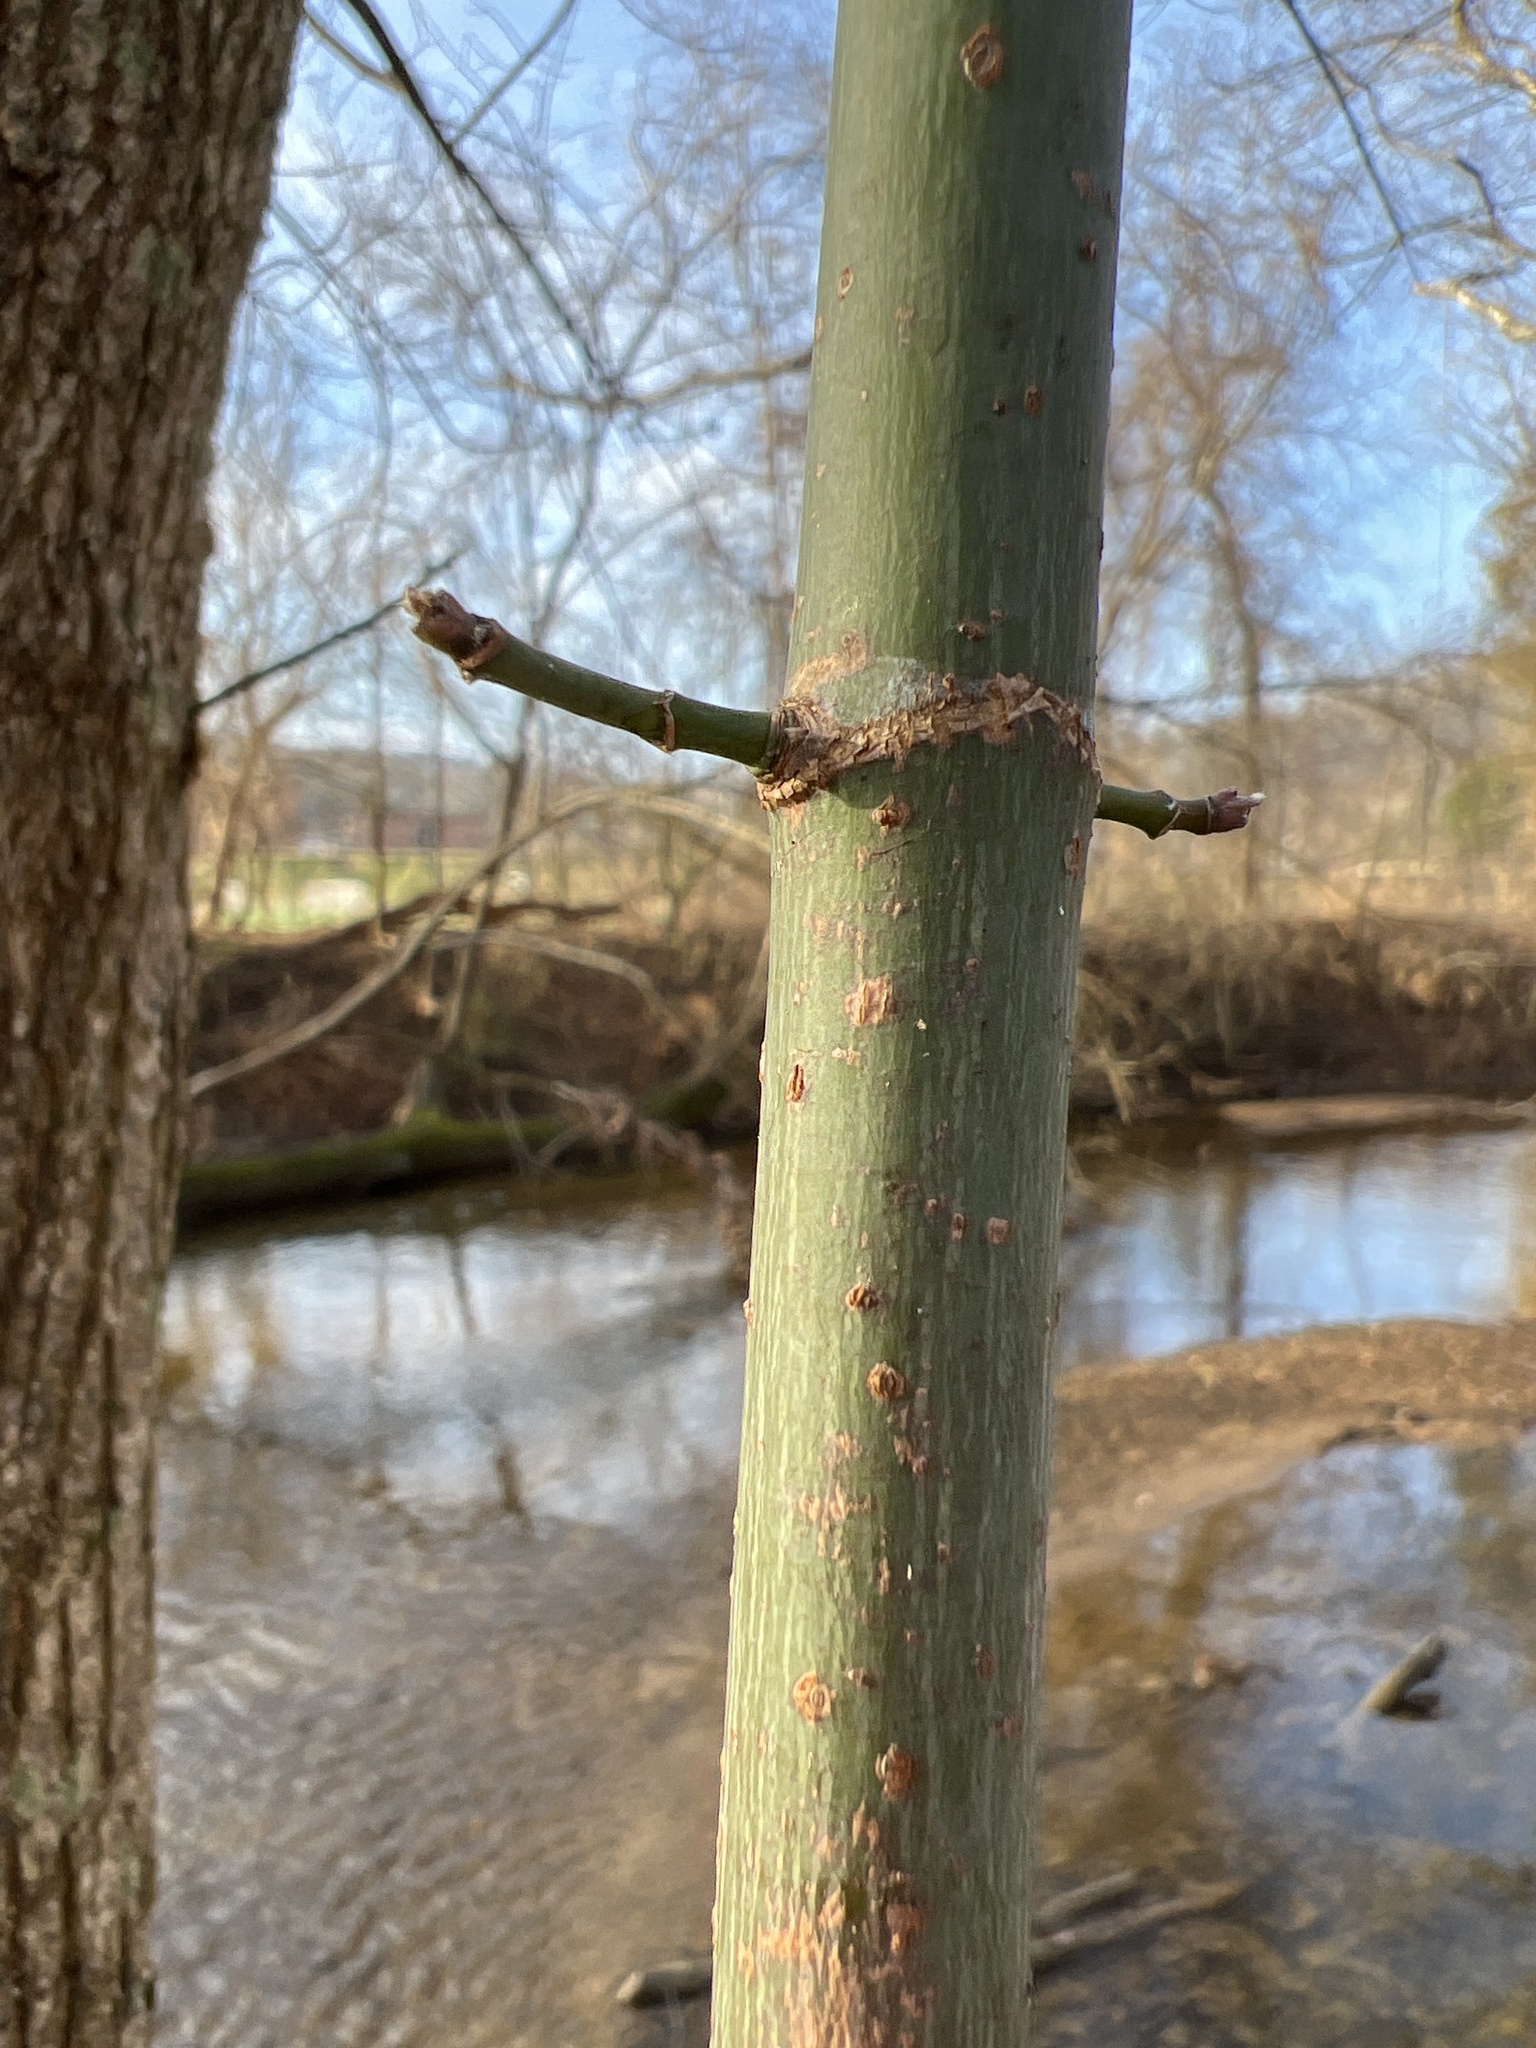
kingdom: Plantae
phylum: Tracheophyta
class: Magnoliopsida
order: Sapindales
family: Sapindaceae
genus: Acer
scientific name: Acer negundo
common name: Ashleaf maple
